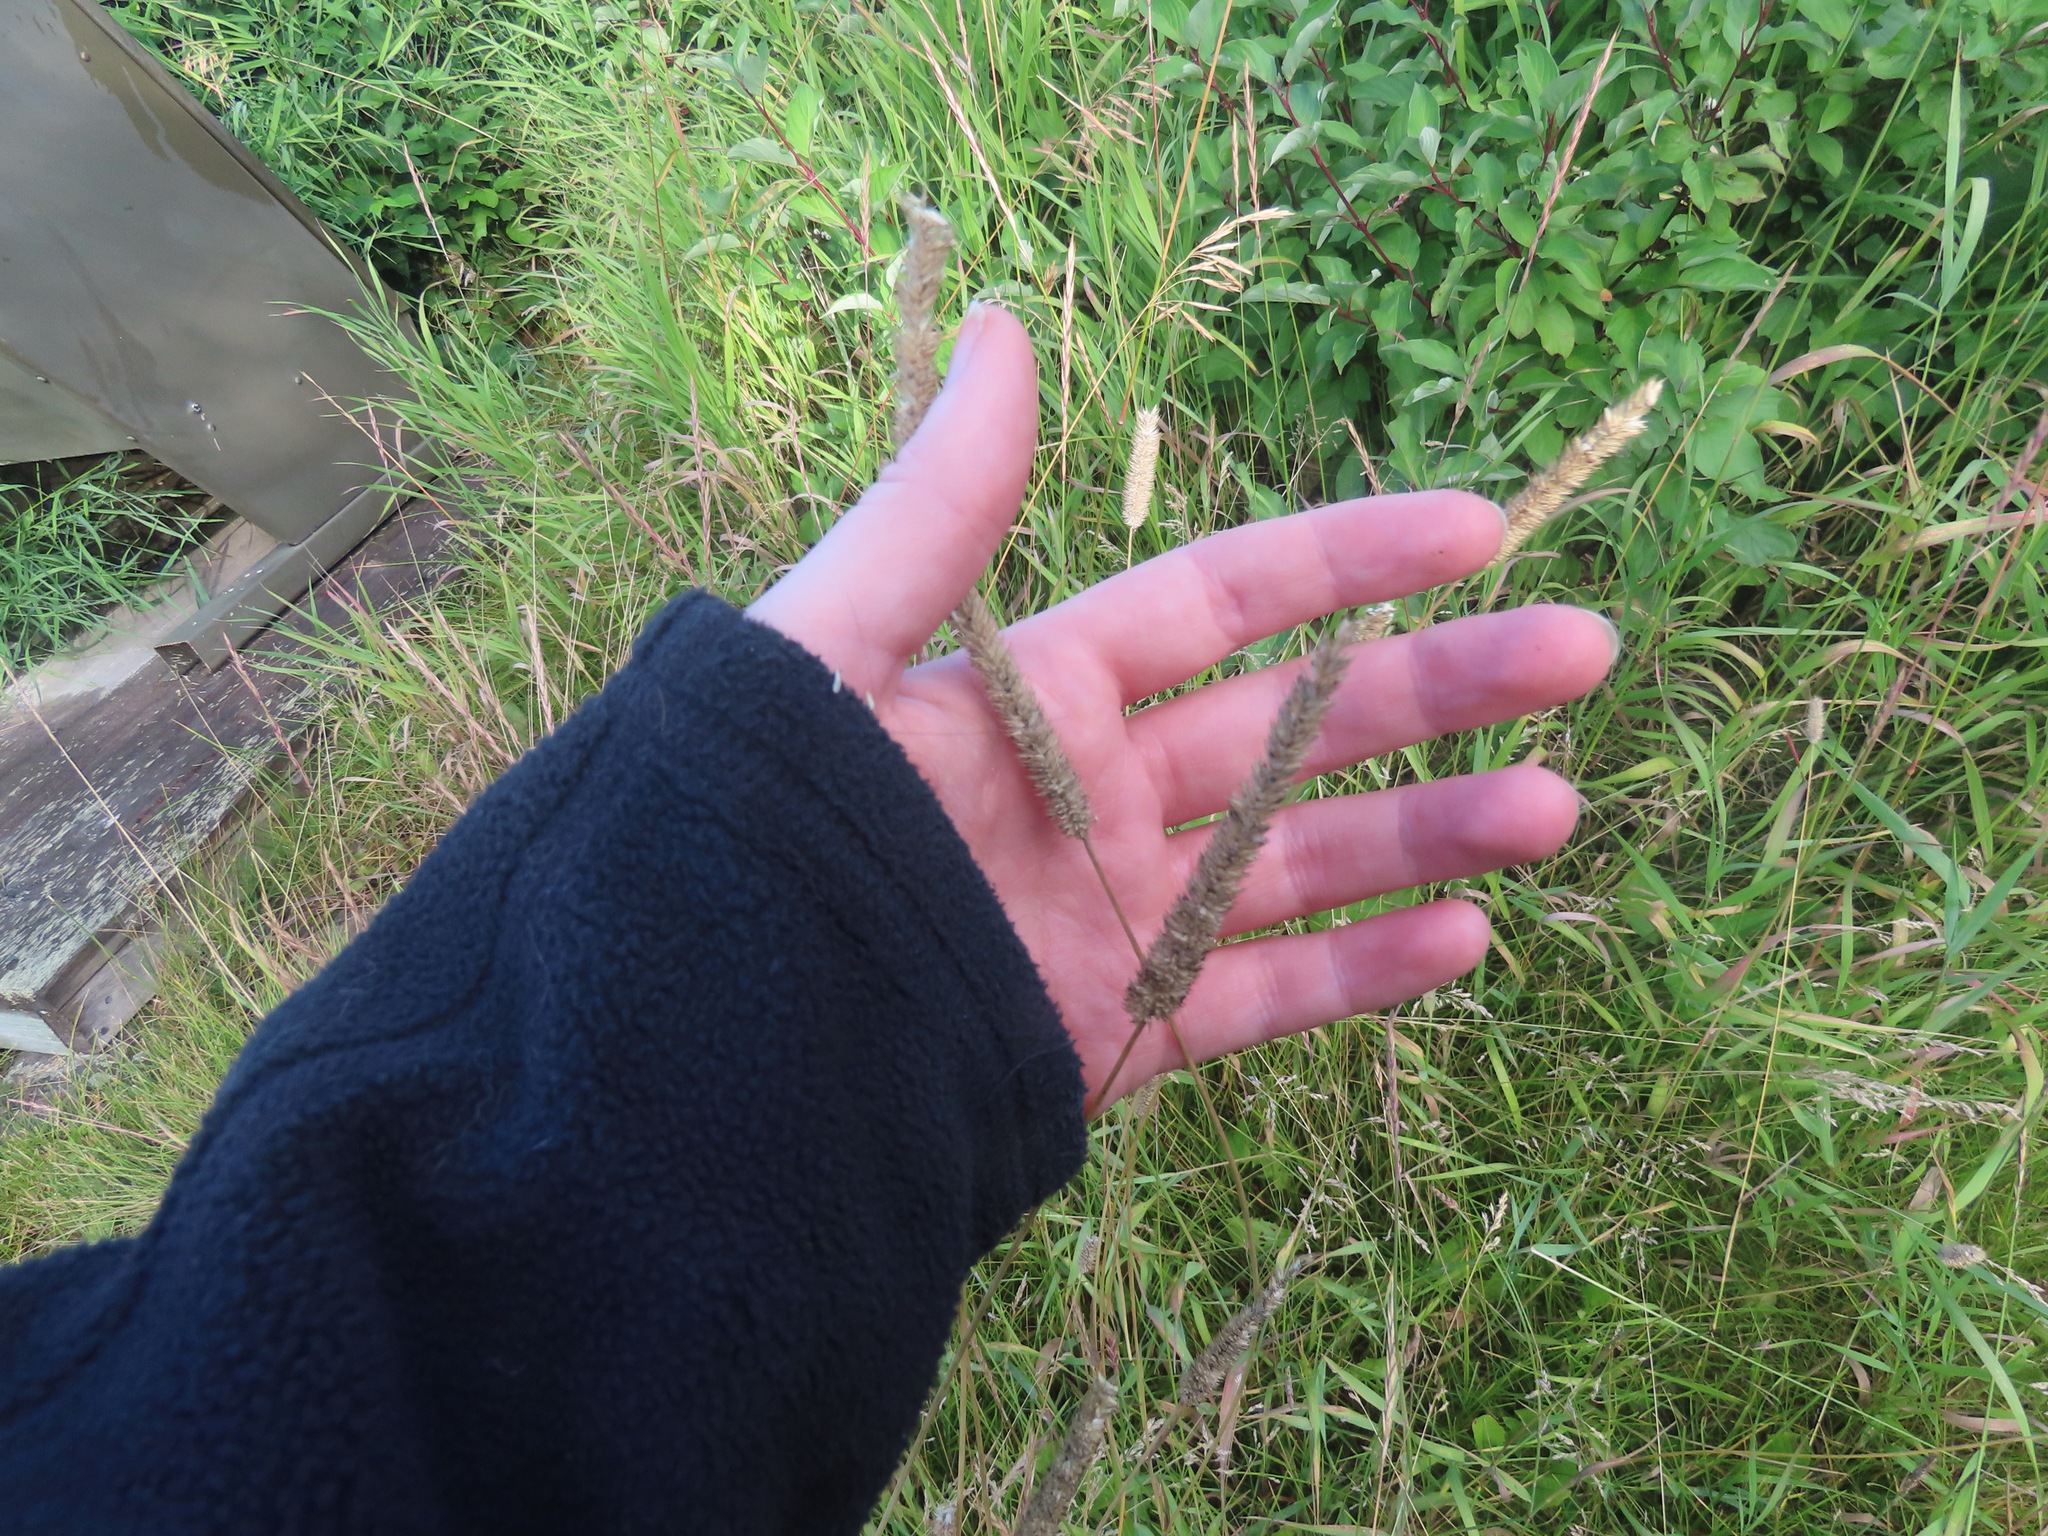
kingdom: Plantae
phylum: Tracheophyta
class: Liliopsida
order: Poales
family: Poaceae
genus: Phleum
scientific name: Phleum pratense
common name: Timothy grass
